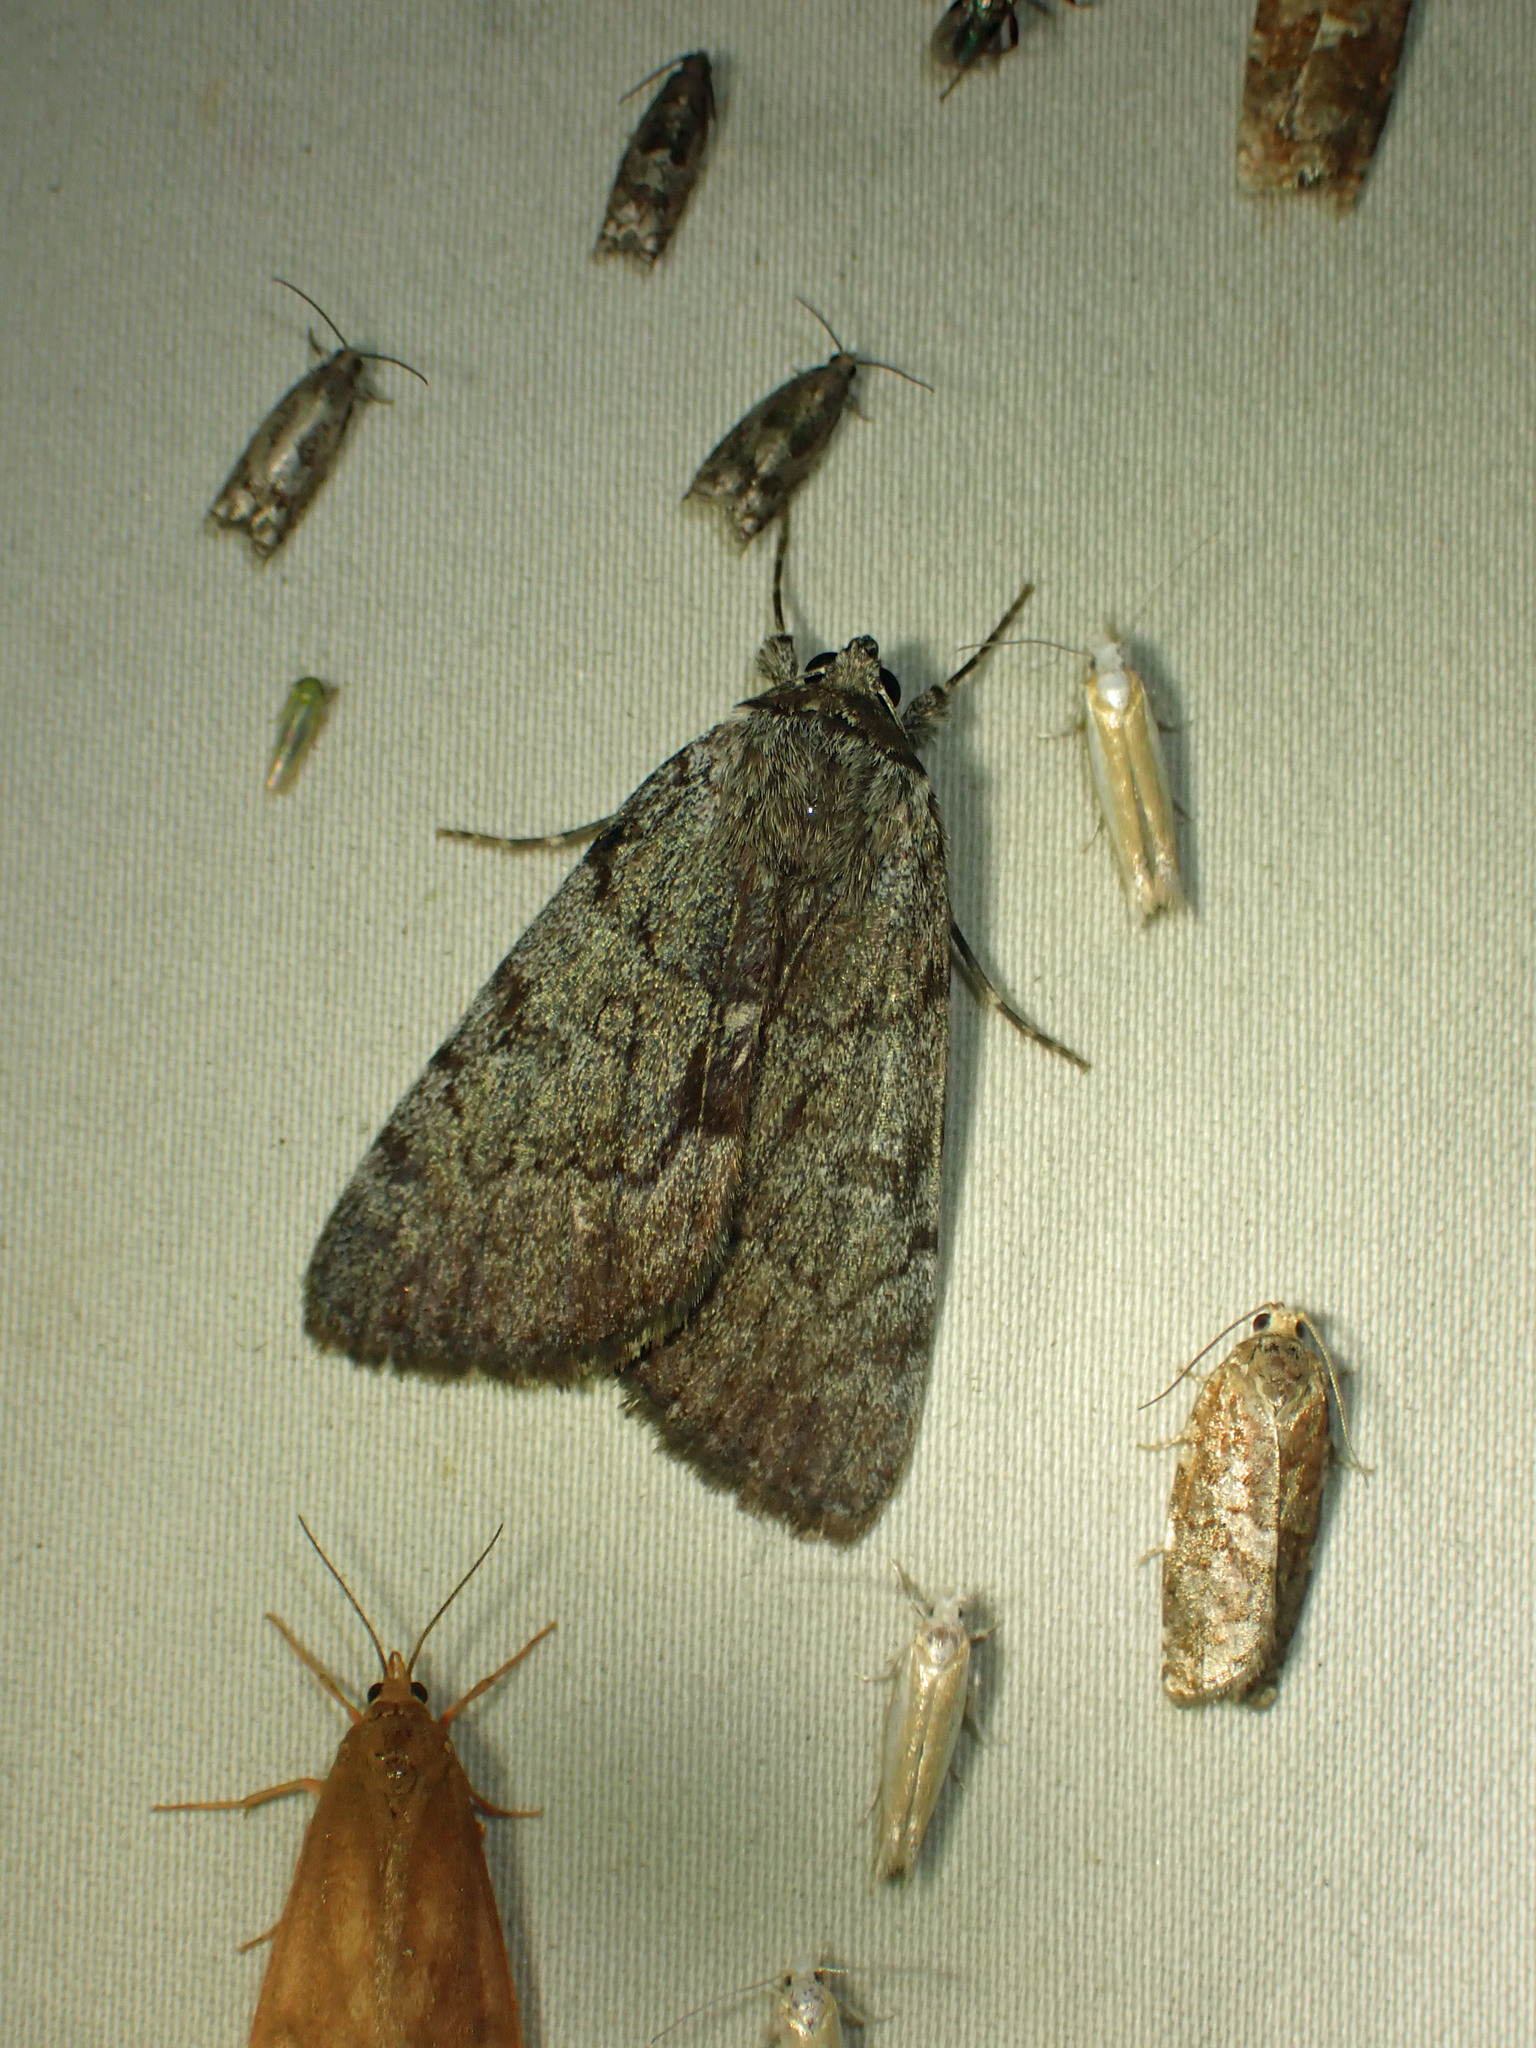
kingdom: Animalia
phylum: Arthropoda
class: Insecta
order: Lepidoptera
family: Erebidae
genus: Catocala
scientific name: Catocala sordida
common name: Sordid underwing
